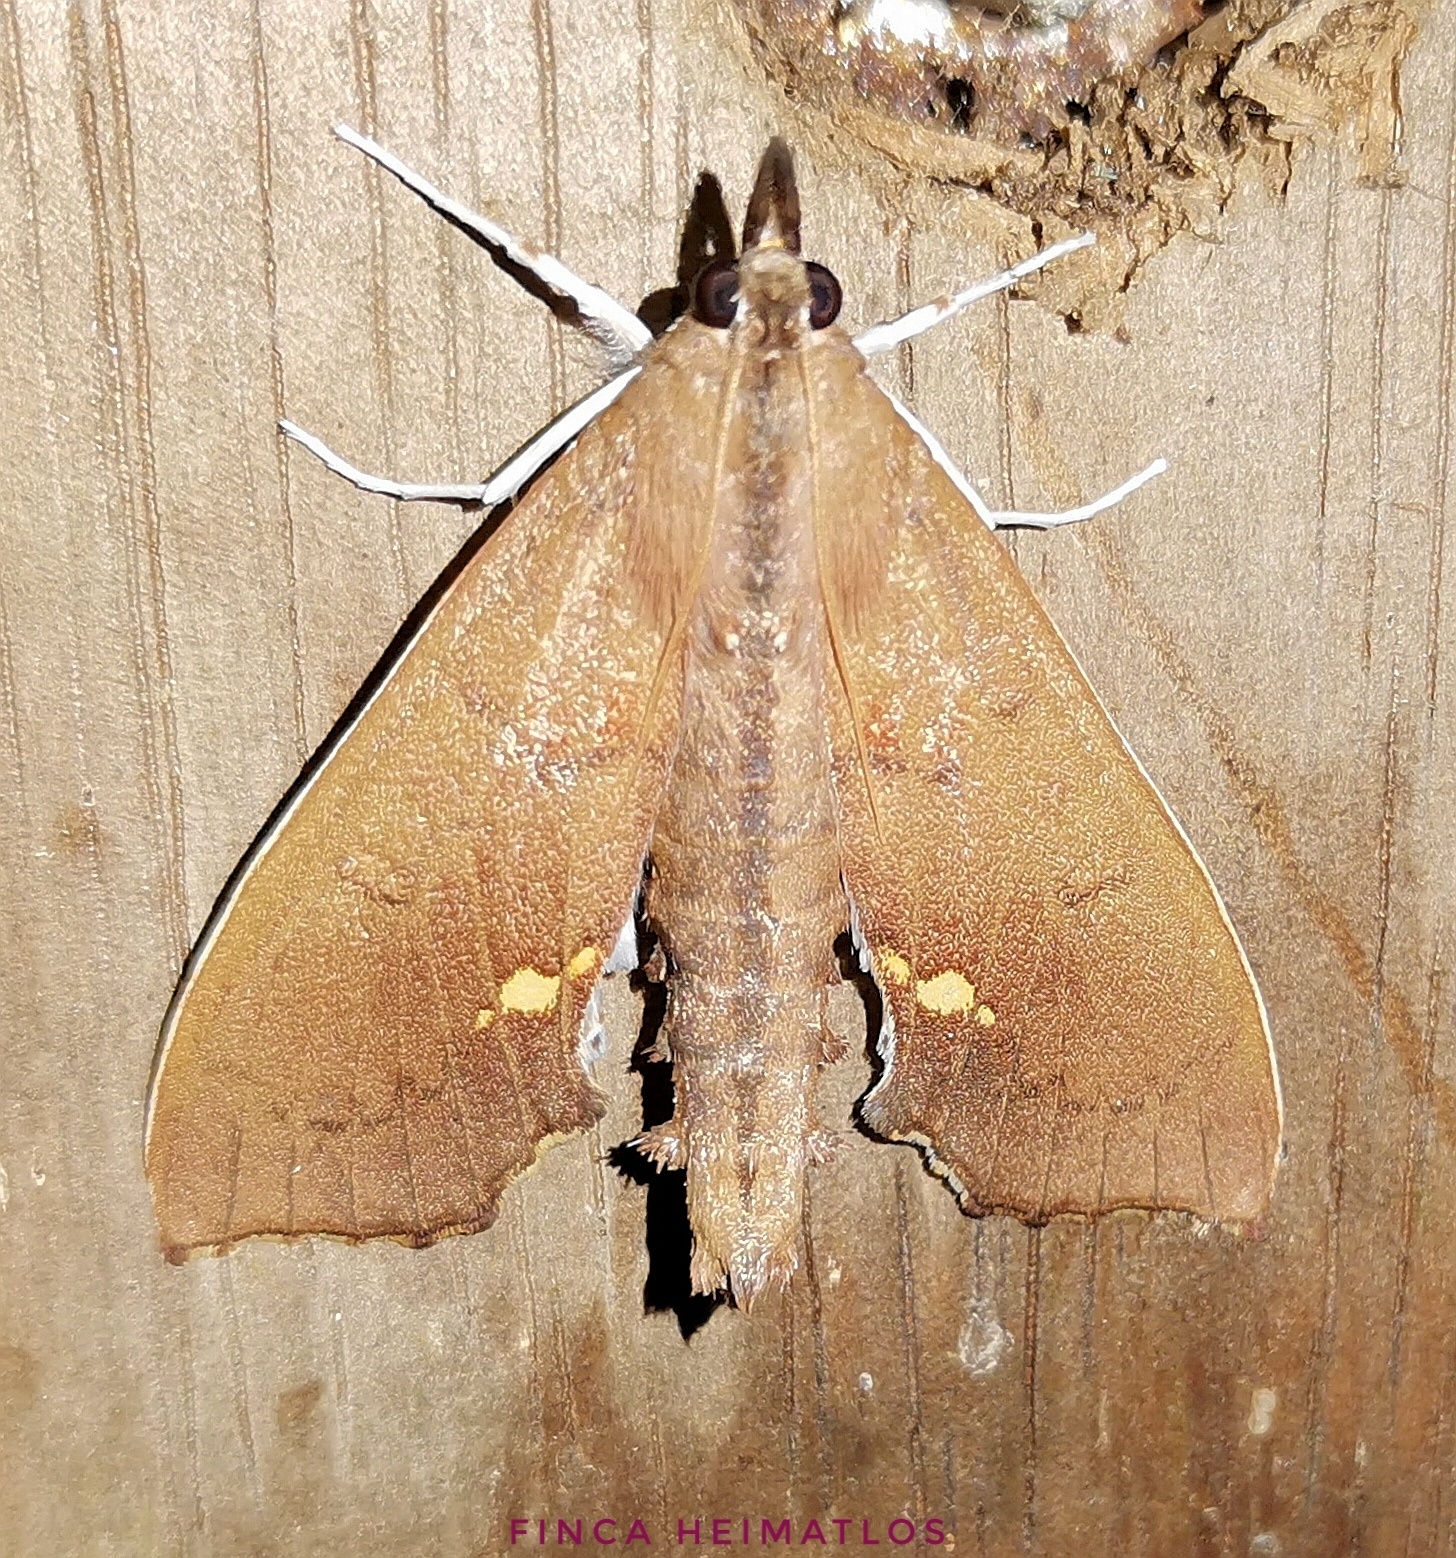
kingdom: Animalia
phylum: Arthropoda
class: Insecta
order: Lepidoptera
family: Crambidae
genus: Liopasia
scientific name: Liopasia andrealis
